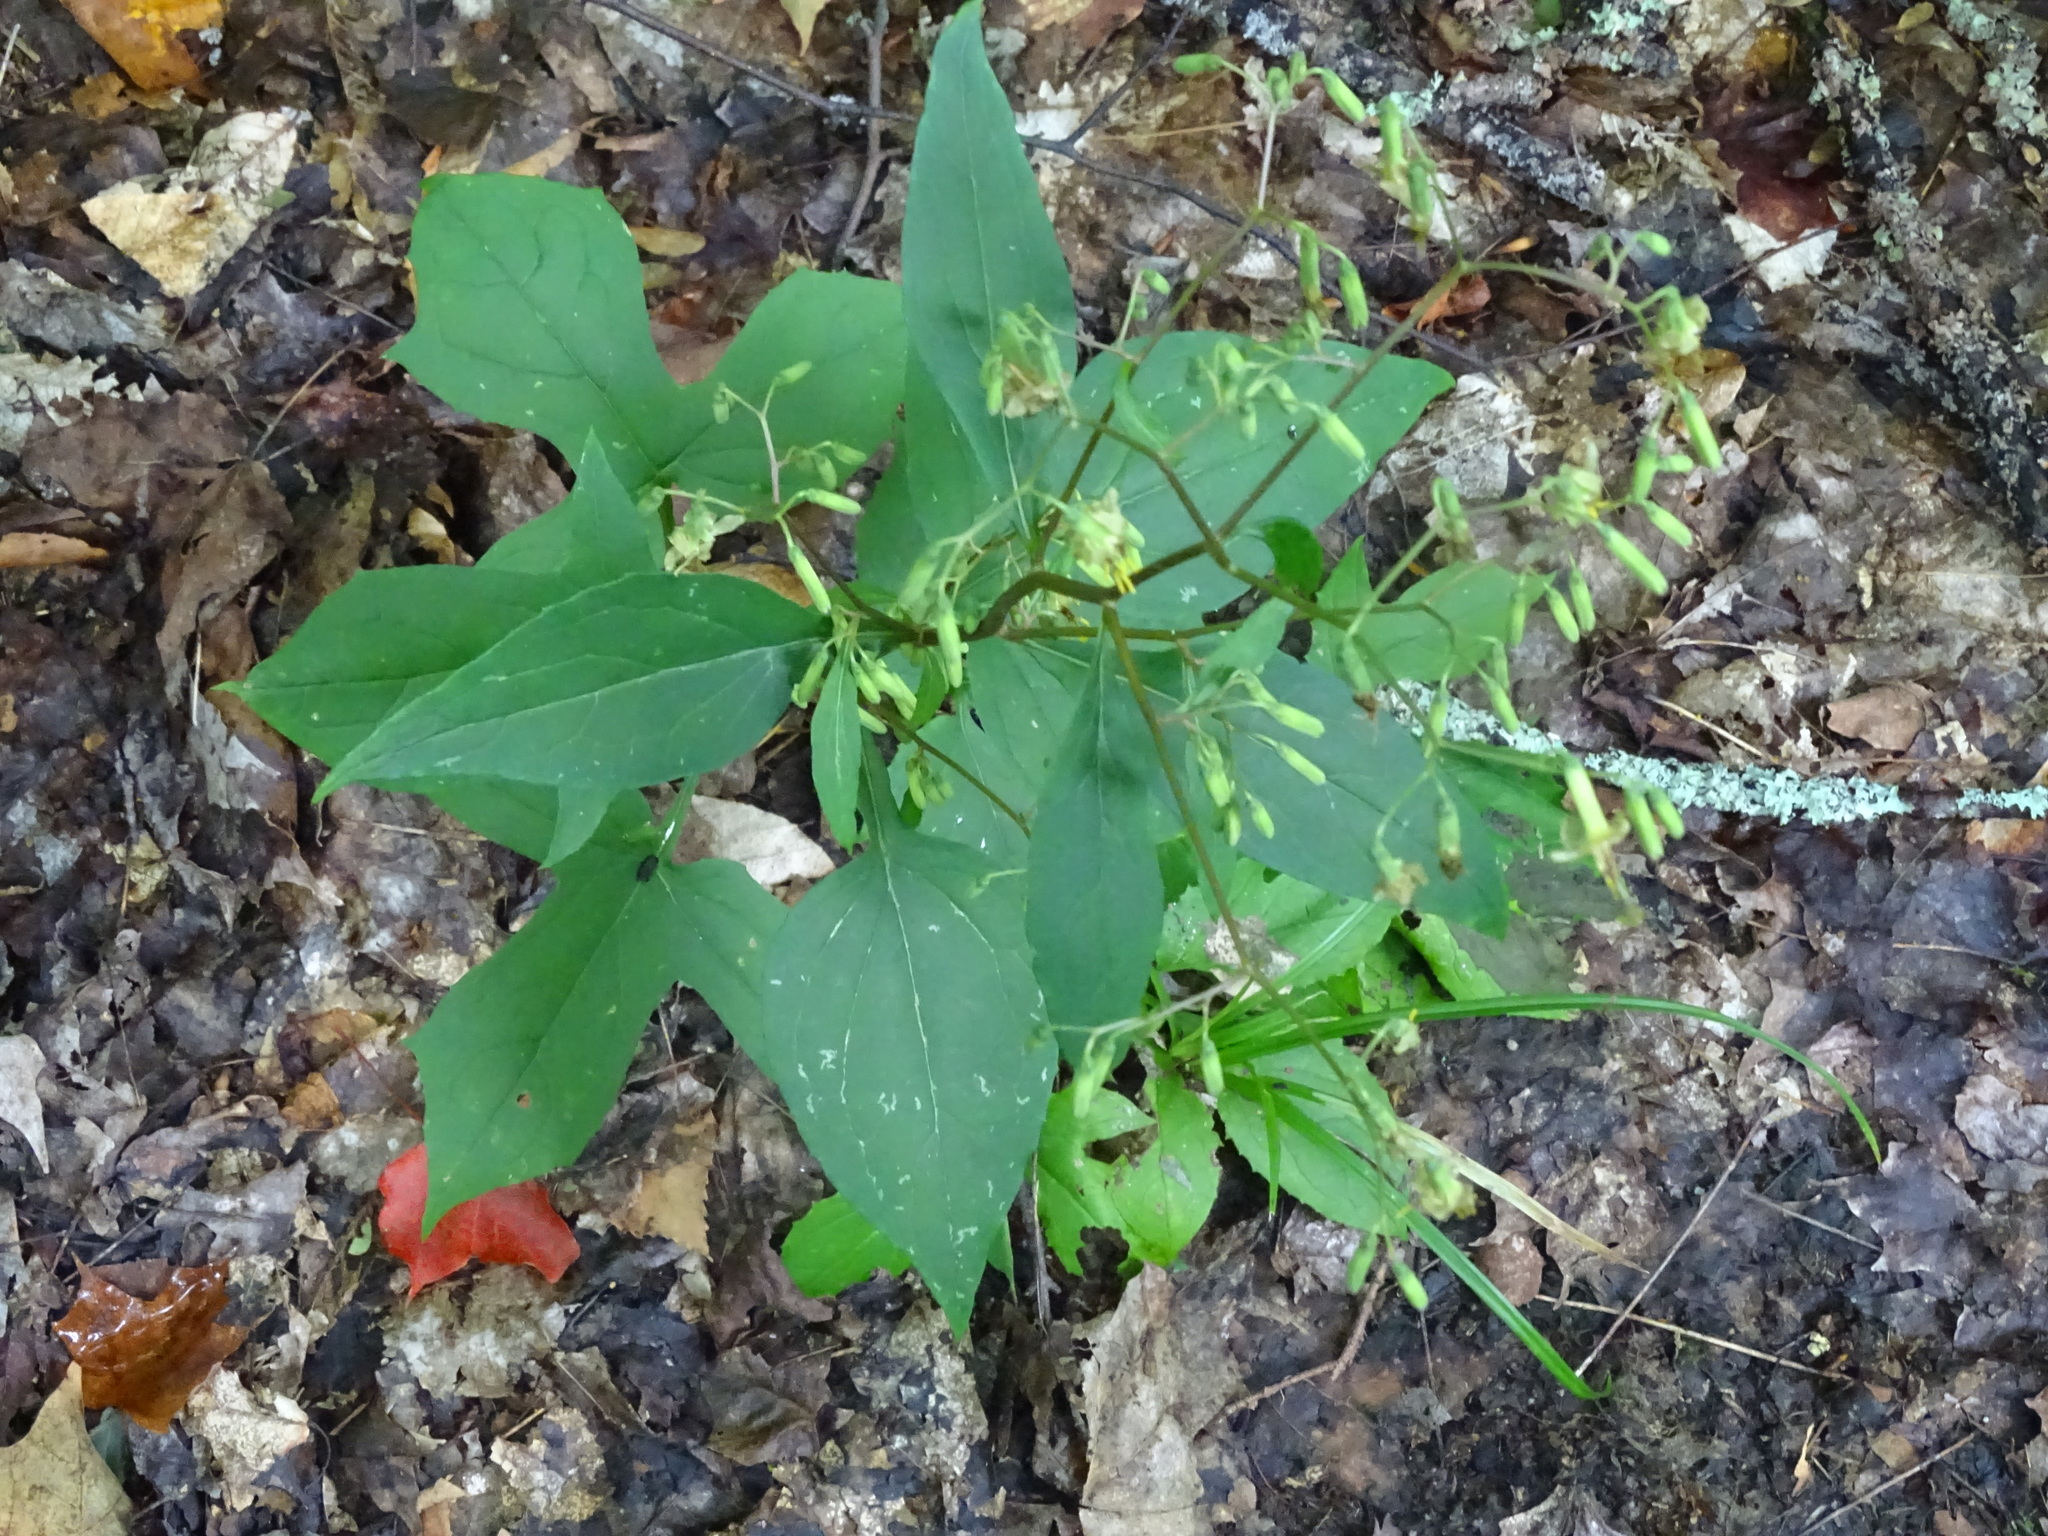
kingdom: Plantae
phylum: Tracheophyta
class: Magnoliopsida
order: Asterales
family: Asteraceae
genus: Nabalus
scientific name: Nabalus altissima
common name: Tall rattlesnakeroot
